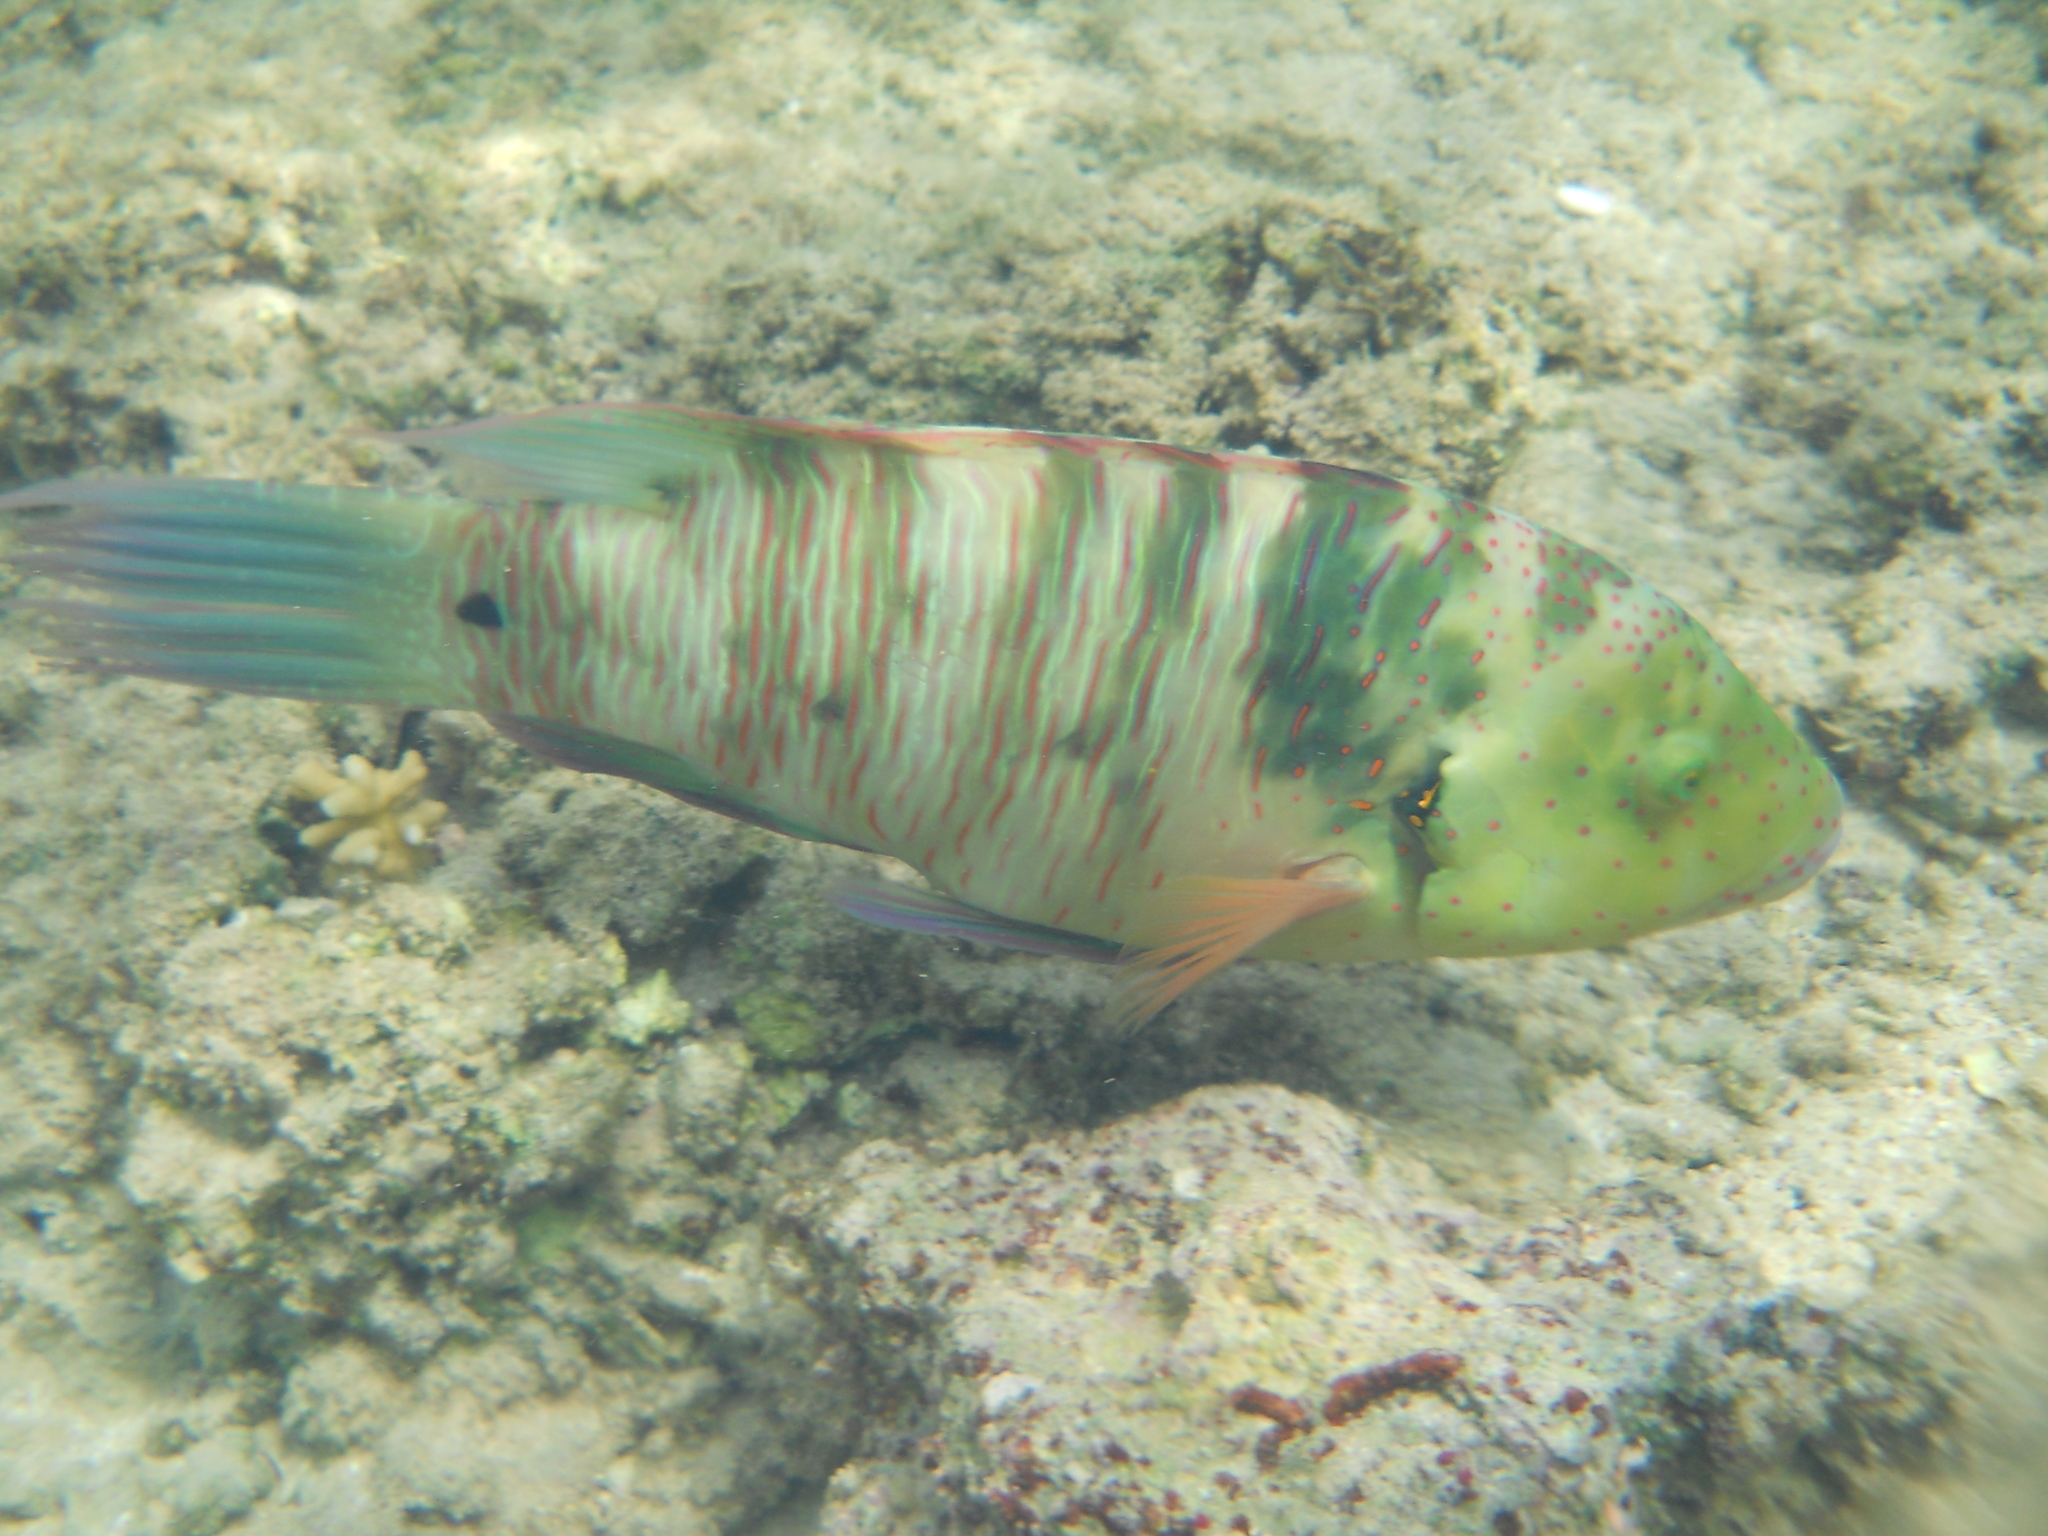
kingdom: Animalia
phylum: Chordata
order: Perciformes
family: Labridae
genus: Cheilinus
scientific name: Cheilinus lunulatus
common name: Broomtail wrasse
